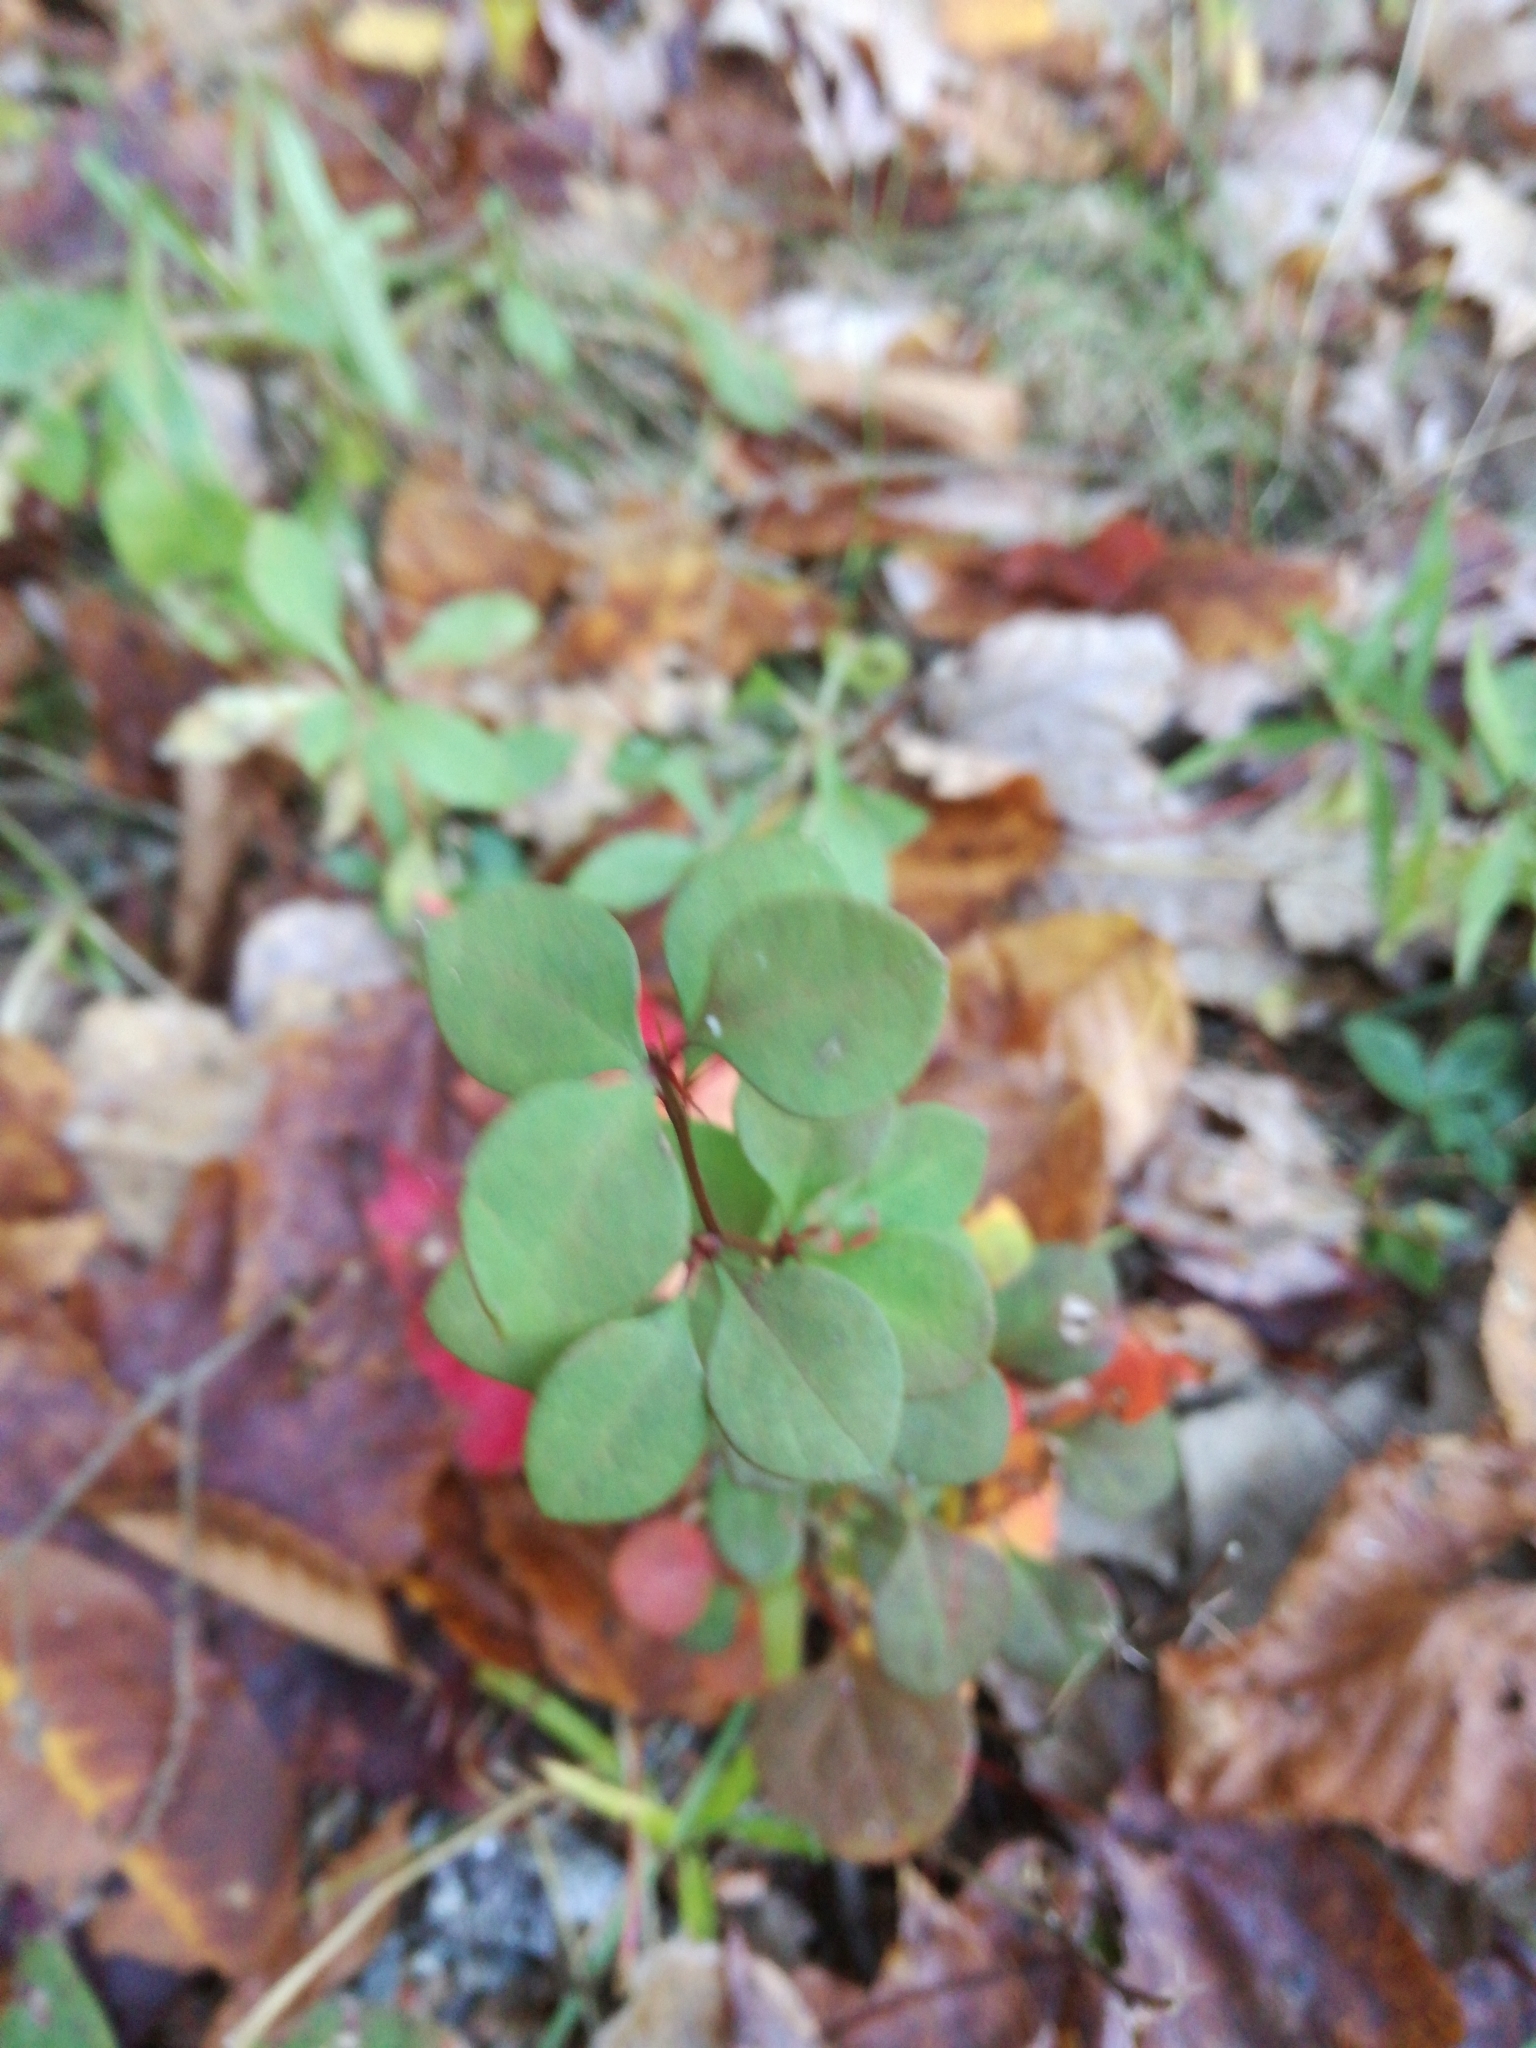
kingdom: Plantae
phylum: Tracheophyta
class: Magnoliopsida
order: Ranunculales
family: Berberidaceae
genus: Berberis
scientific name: Berberis thunbergii
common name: Japanese barberry
